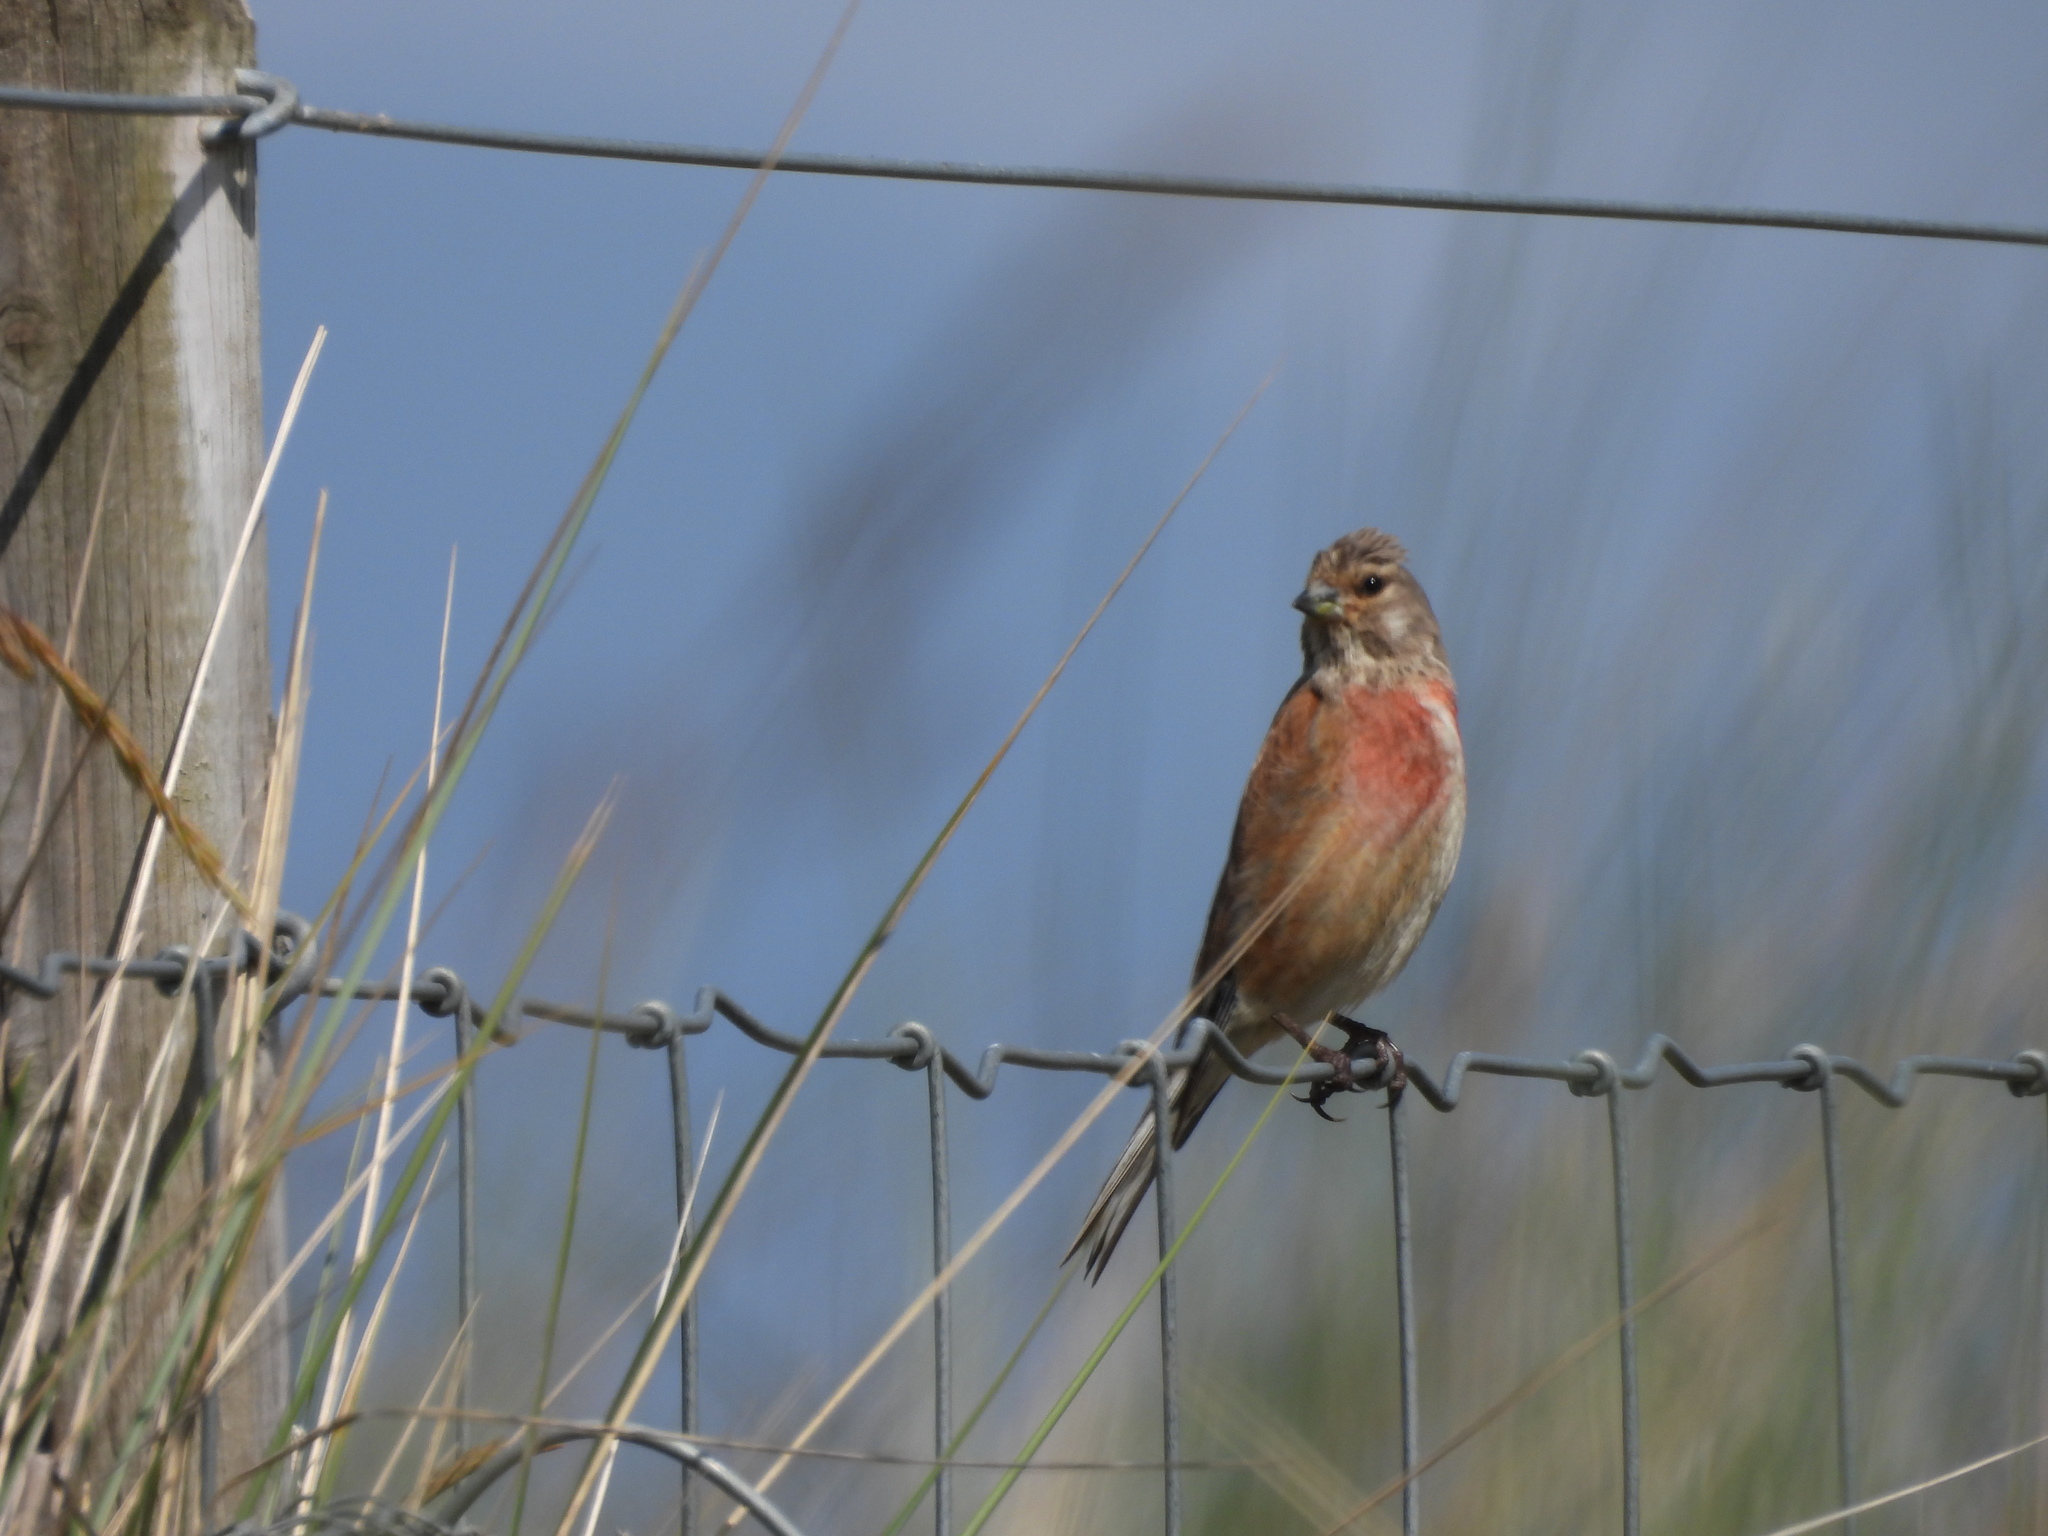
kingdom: Animalia
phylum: Chordata
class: Aves
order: Passeriformes
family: Fringillidae
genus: Linaria
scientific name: Linaria cannabina
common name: Common linnet
